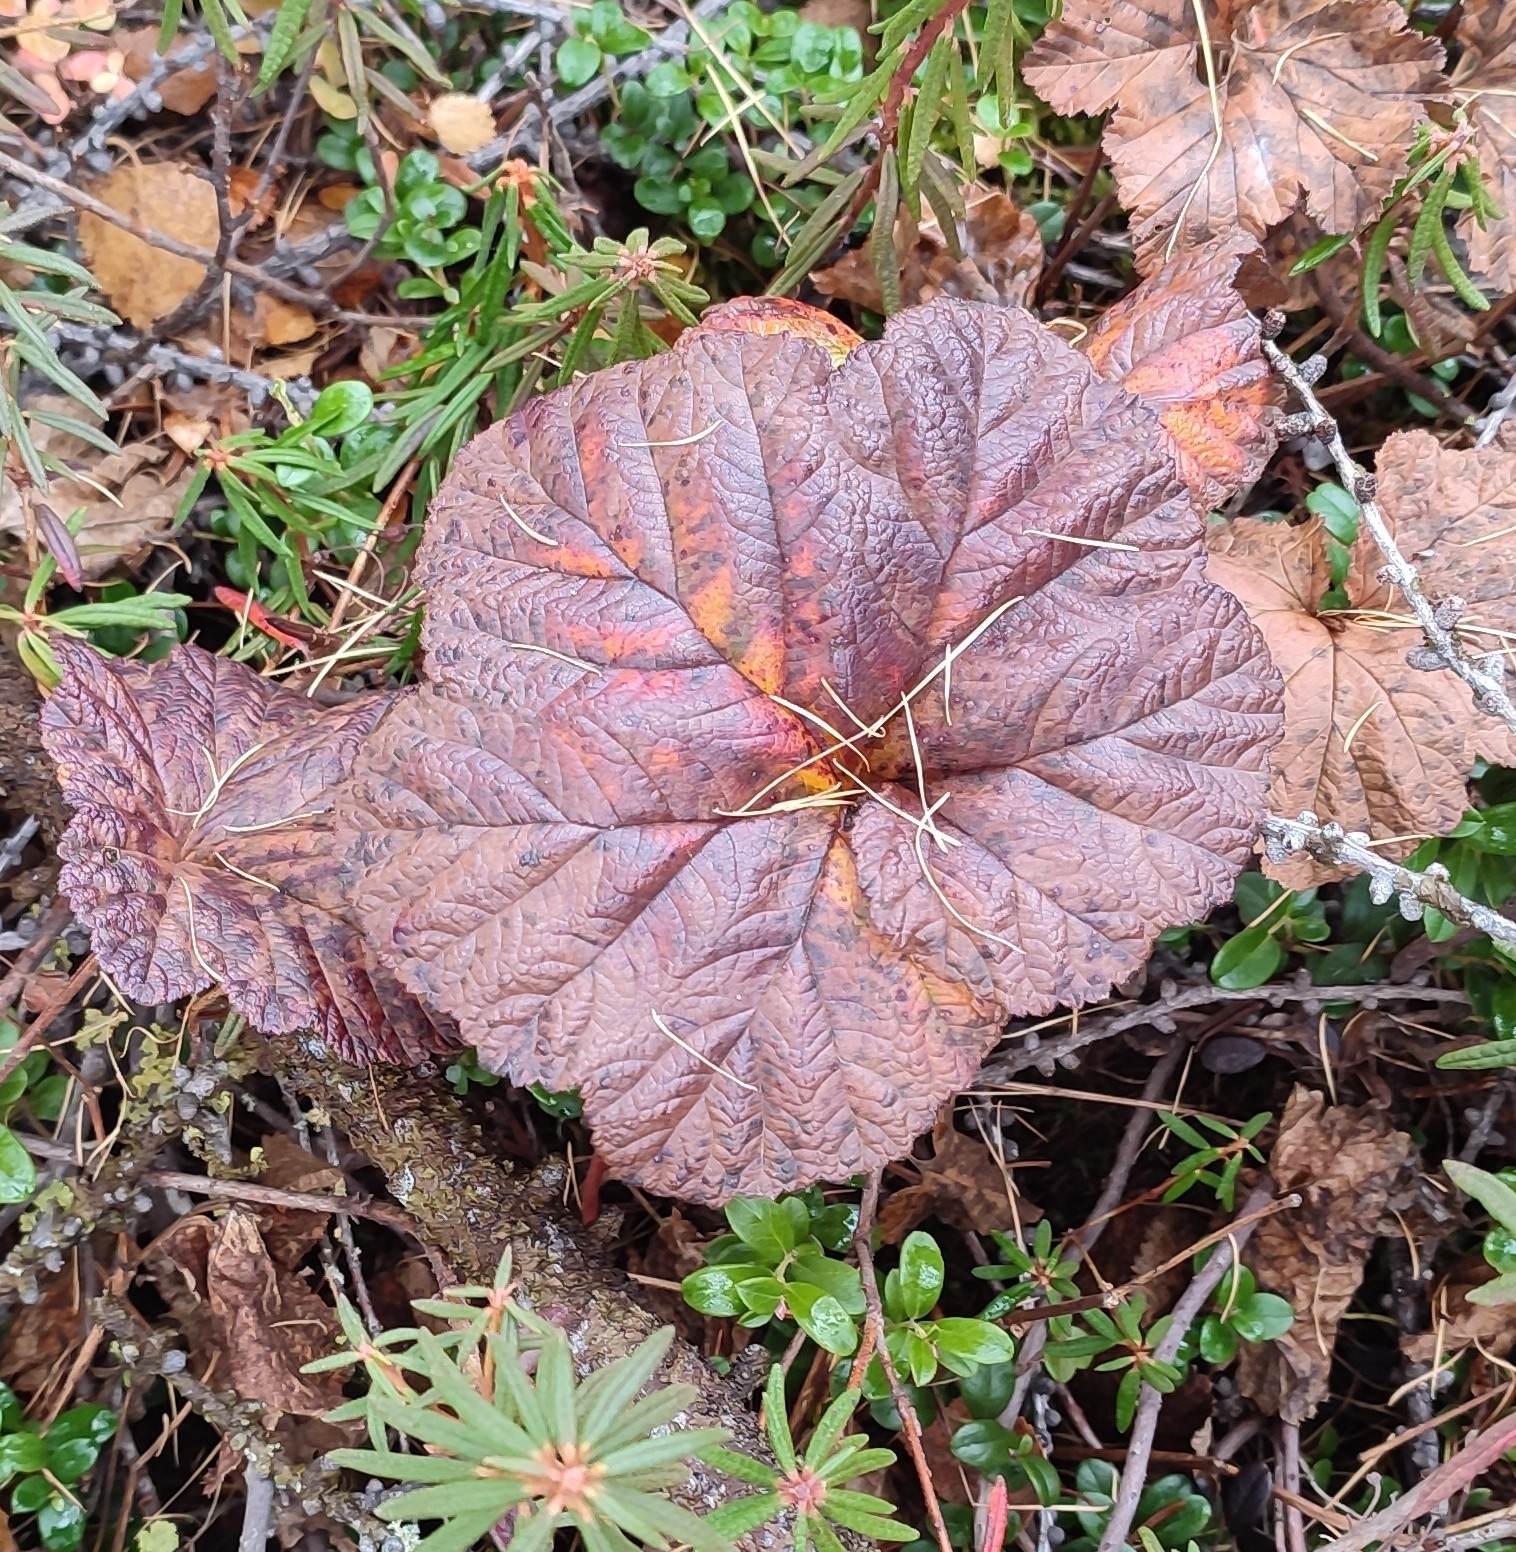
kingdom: Plantae
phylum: Tracheophyta
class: Magnoliopsida
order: Rosales
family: Rosaceae
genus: Rubus
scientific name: Rubus chamaemorus
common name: Cloudberry
